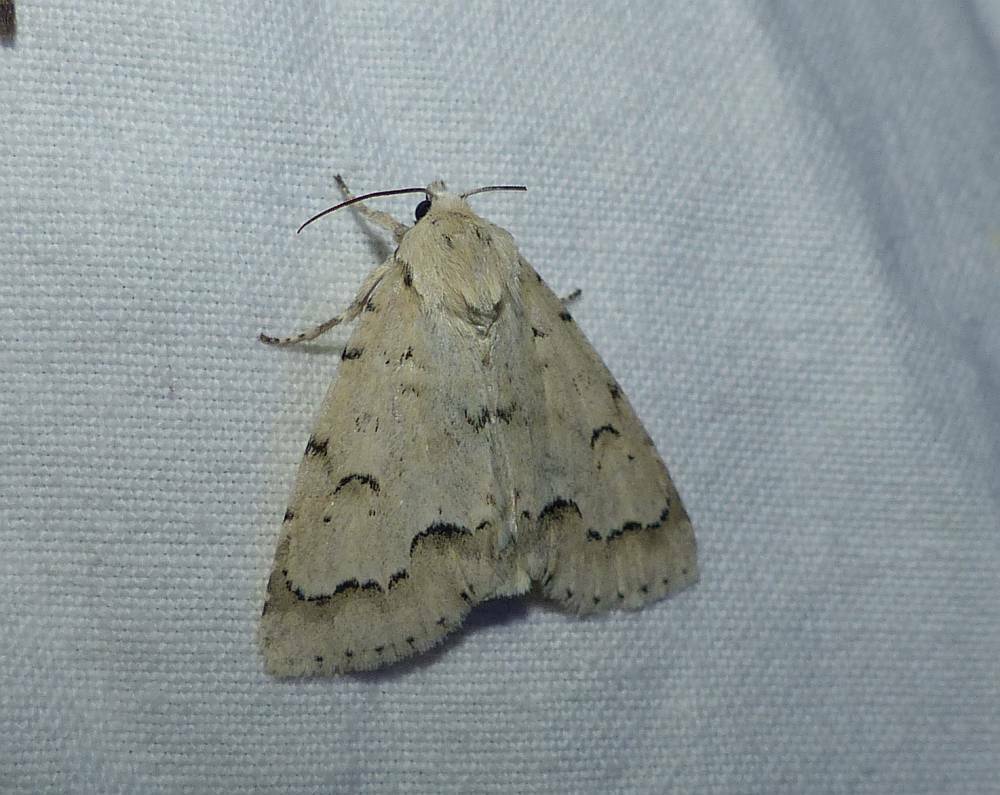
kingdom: Animalia
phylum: Arthropoda
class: Insecta
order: Lepidoptera
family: Noctuidae
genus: Acronicta
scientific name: Acronicta innotata
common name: Unmarked dagger
